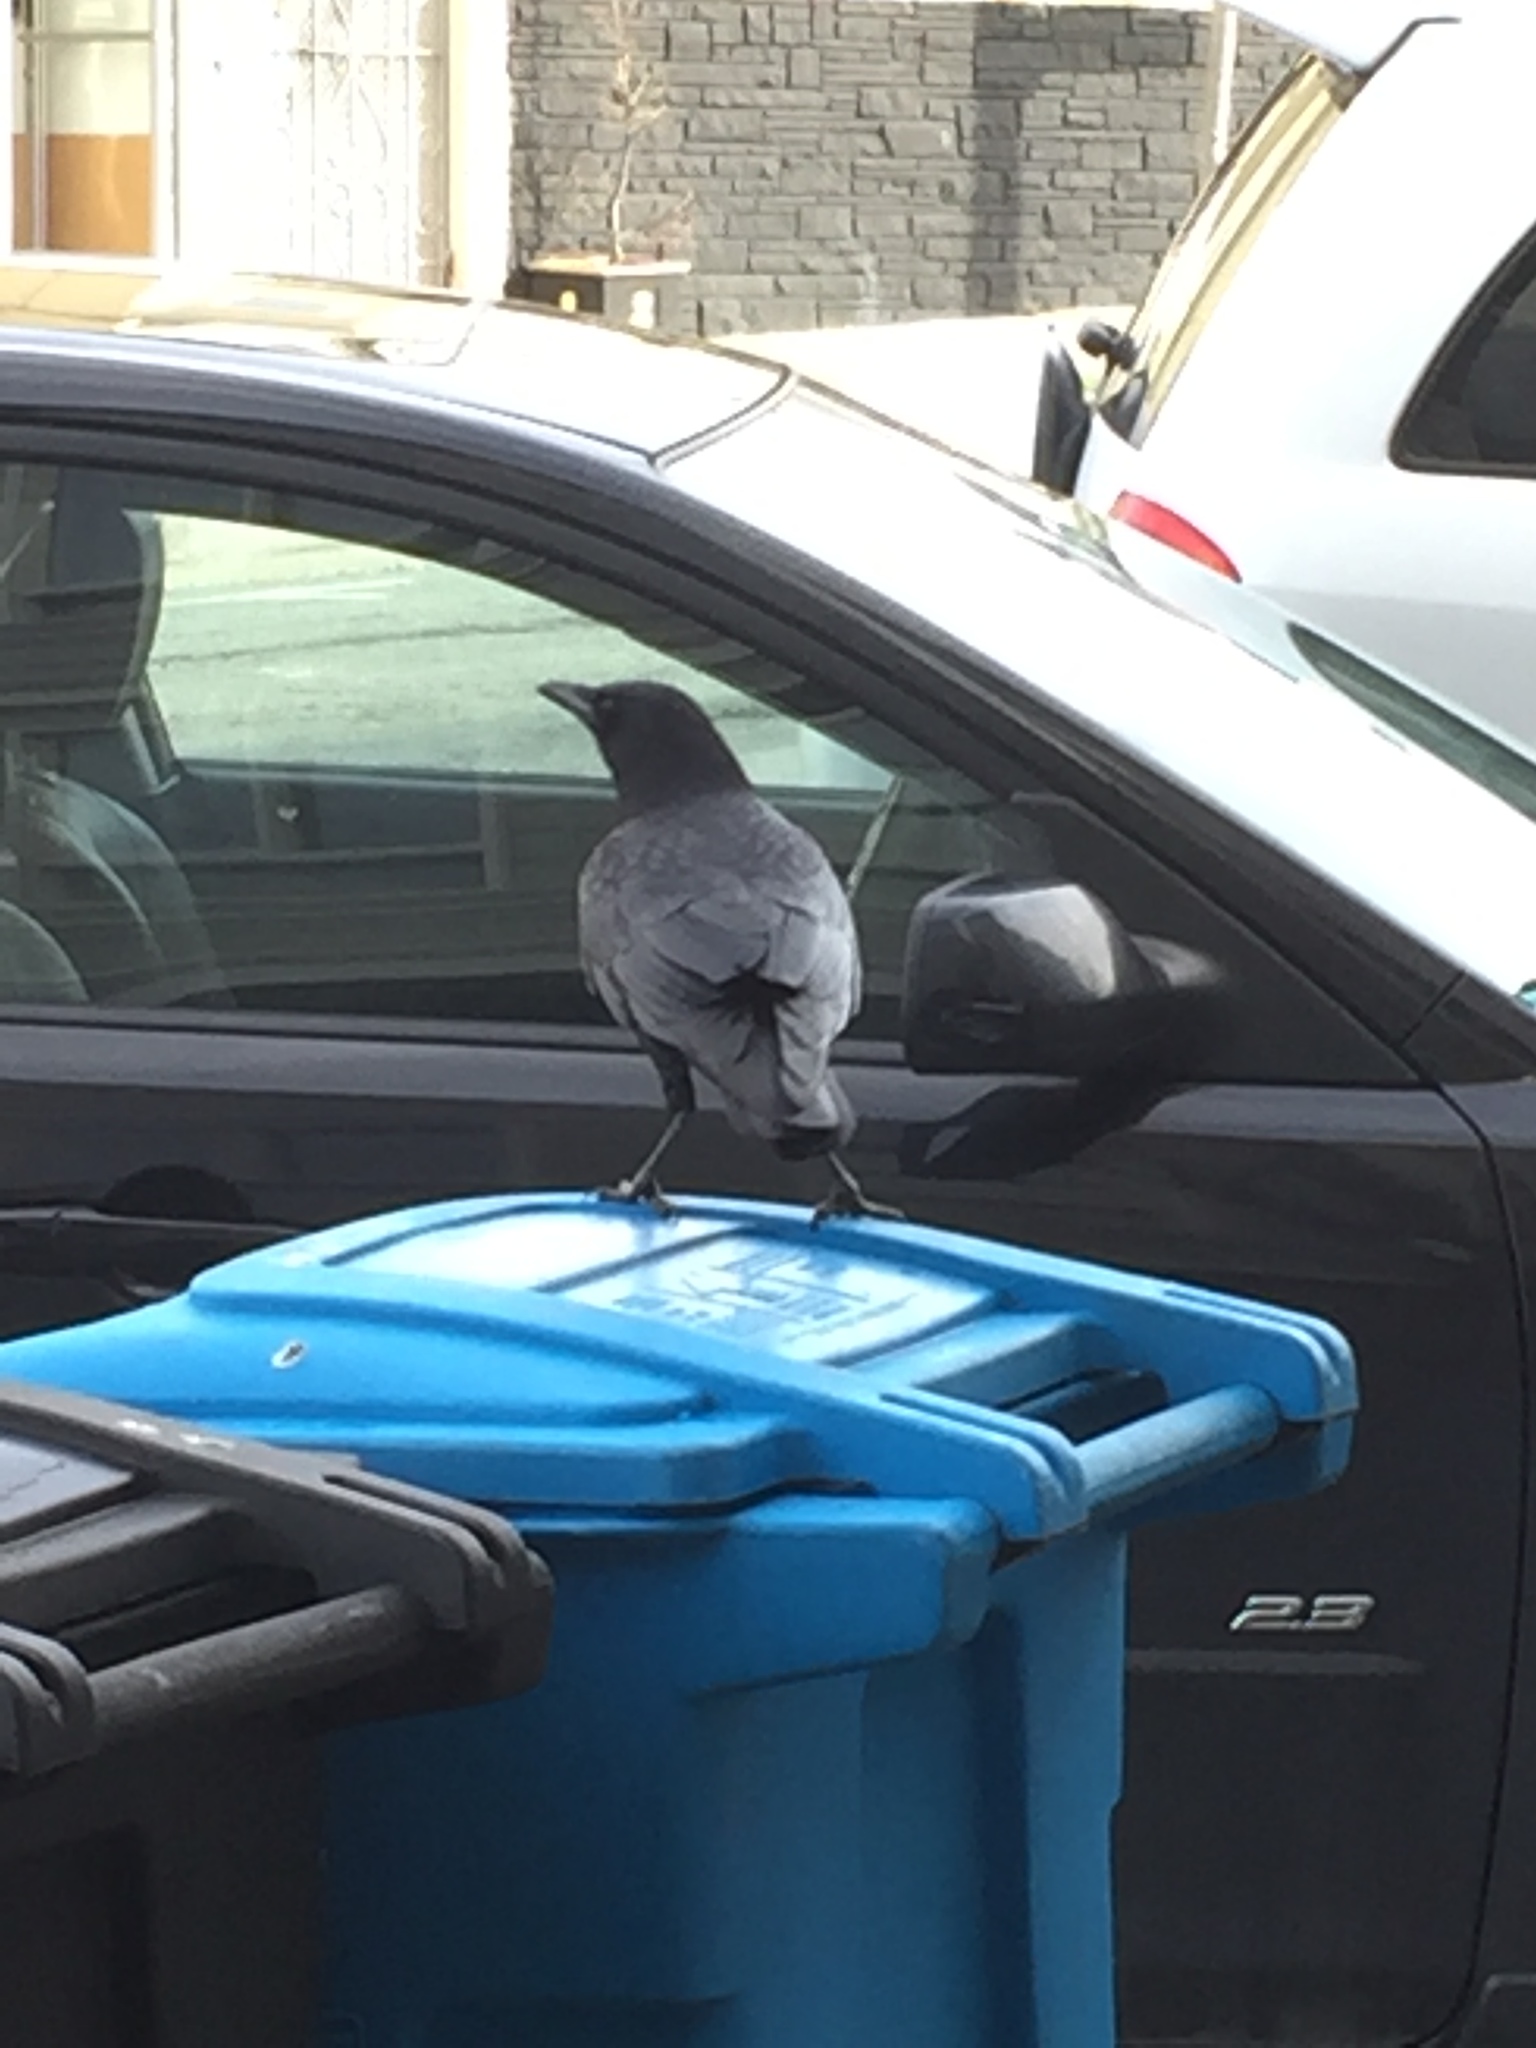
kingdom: Animalia
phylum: Chordata
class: Aves
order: Passeriformes
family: Corvidae
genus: Corvus
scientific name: Corvus brachyrhynchos
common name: American crow
